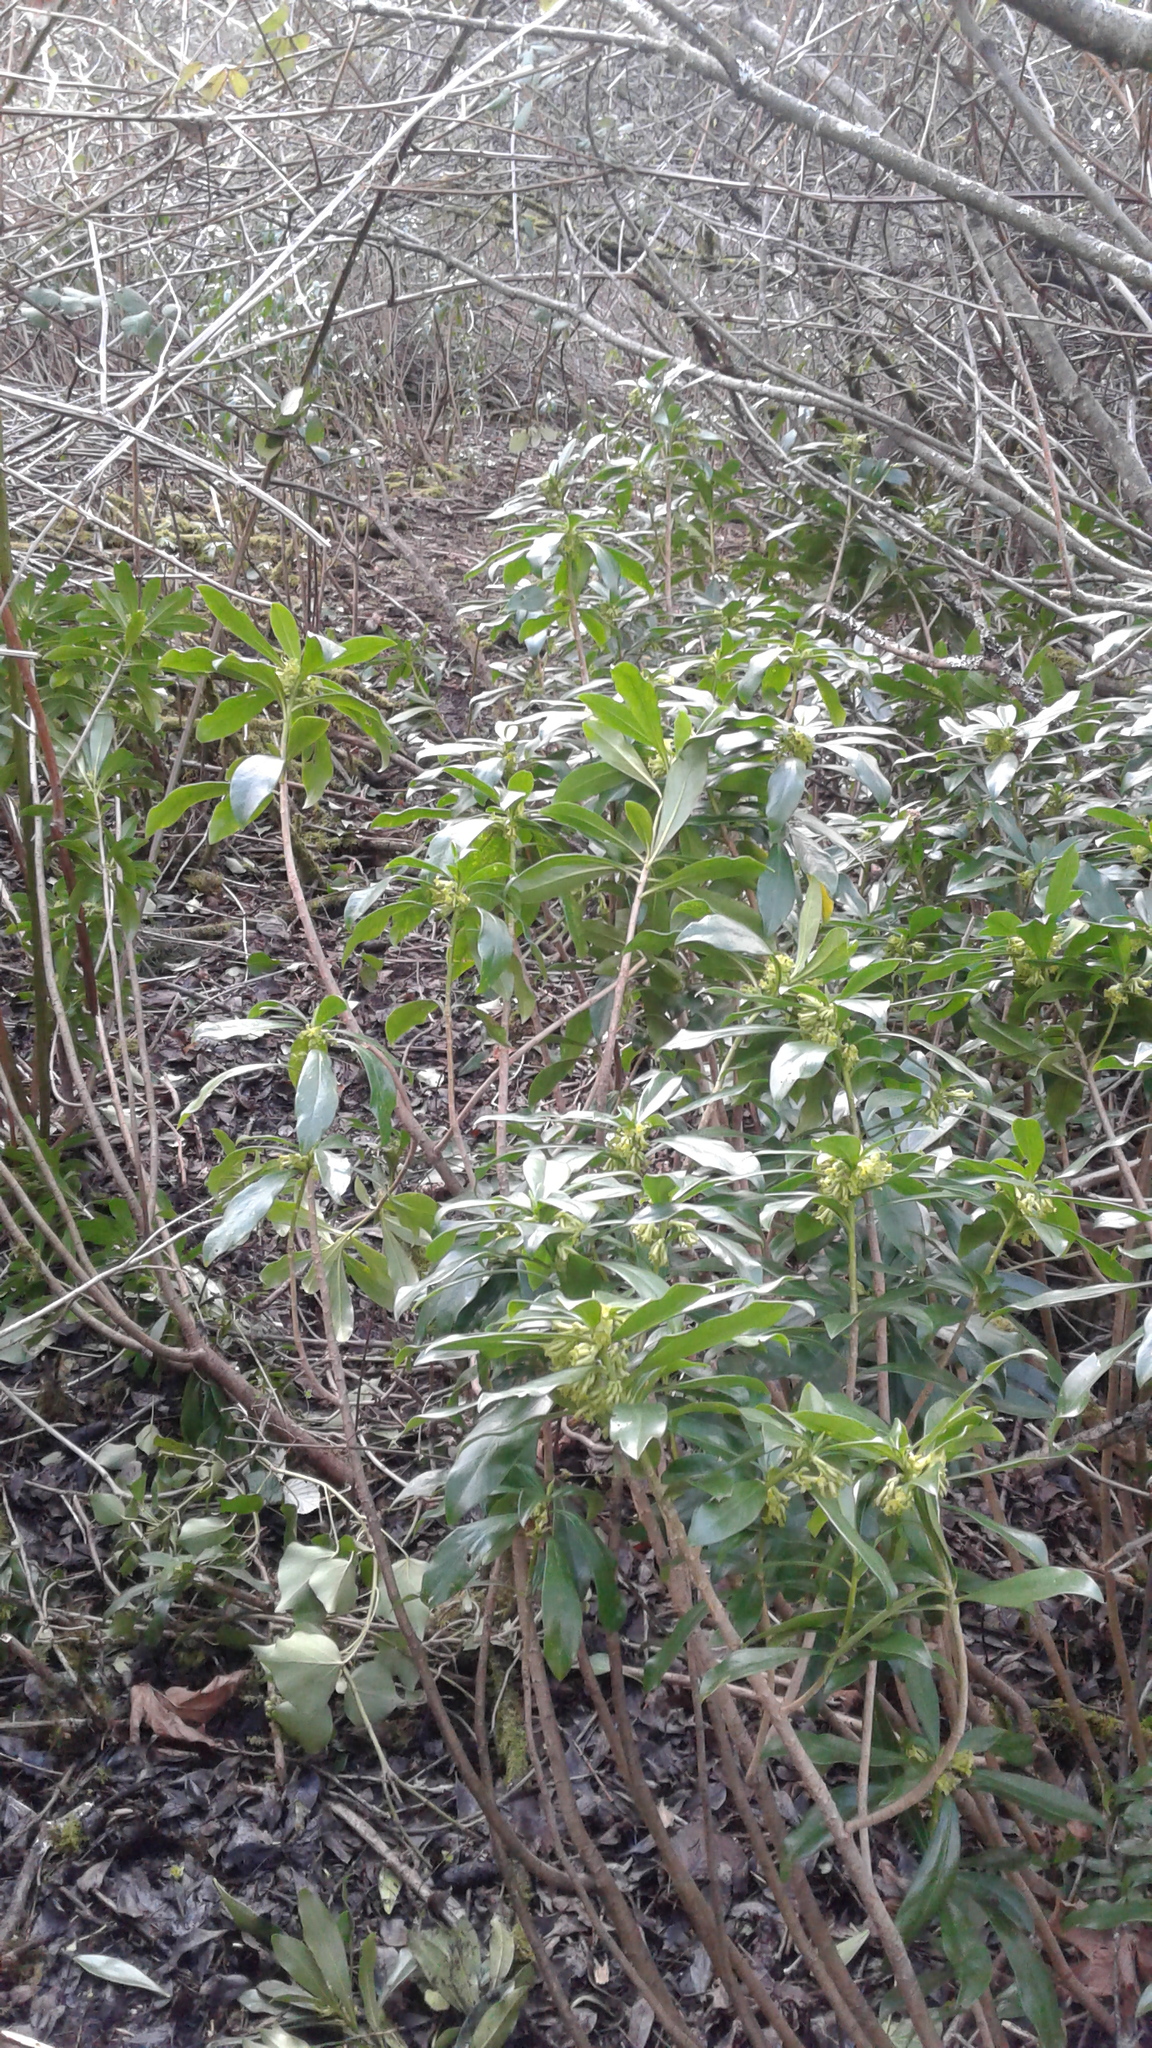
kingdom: Plantae
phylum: Tracheophyta
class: Magnoliopsida
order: Malvales
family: Thymelaeaceae
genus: Daphne
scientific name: Daphne laureola
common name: Spurge-laurel
